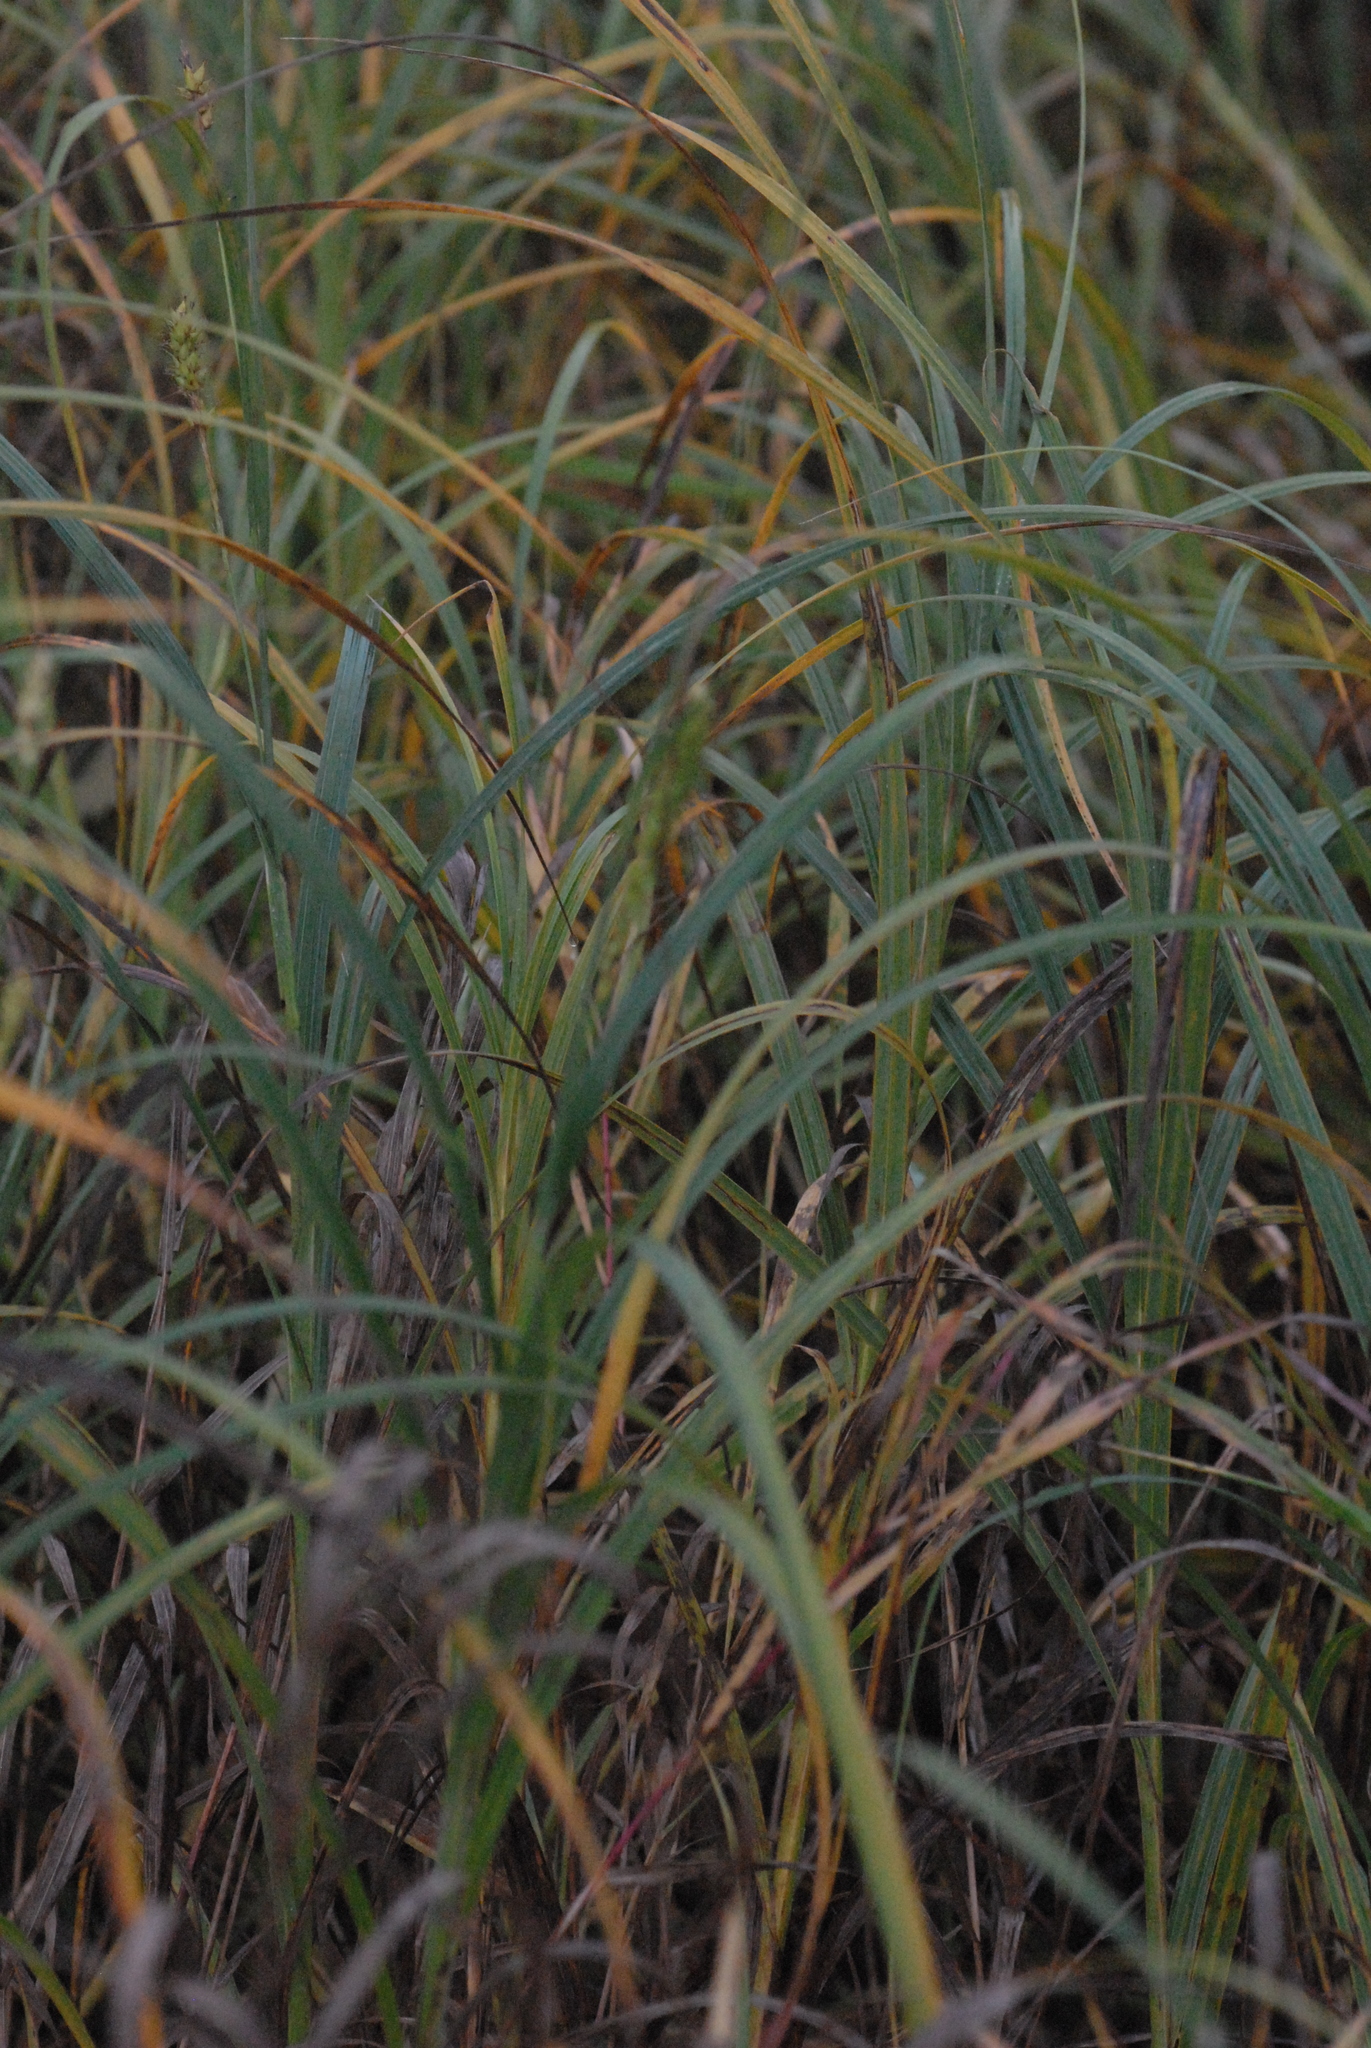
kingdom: Plantae
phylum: Tracheophyta
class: Liliopsida
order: Poales
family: Cyperaceae
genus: Carex
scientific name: Carex hirta
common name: Hairy sedge
